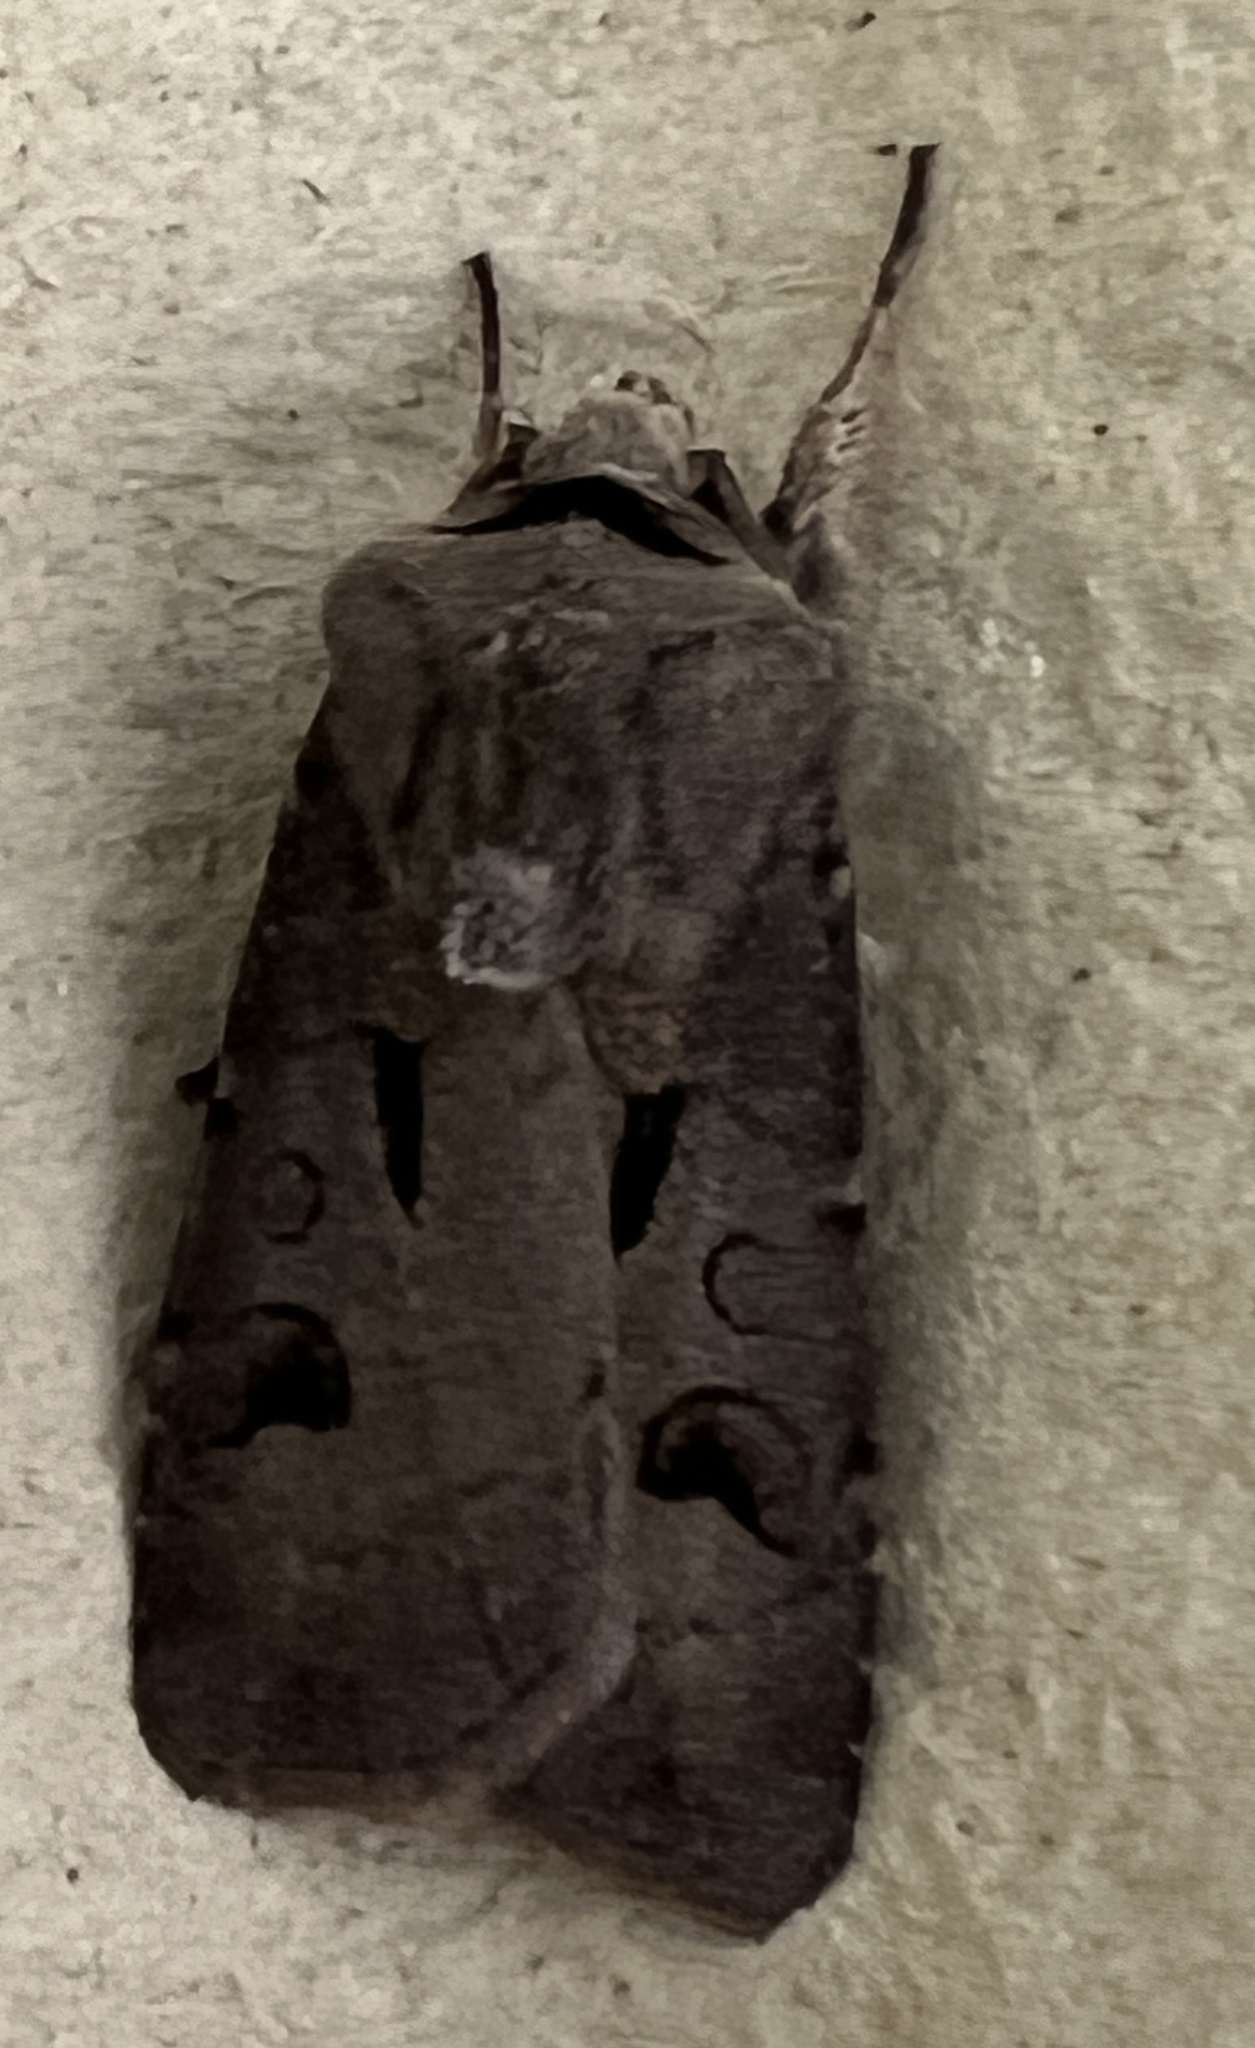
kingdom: Animalia
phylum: Arthropoda
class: Insecta
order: Lepidoptera
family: Noctuidae
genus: Agrotis
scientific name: Agrotis exclamationis
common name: Heart and dart
